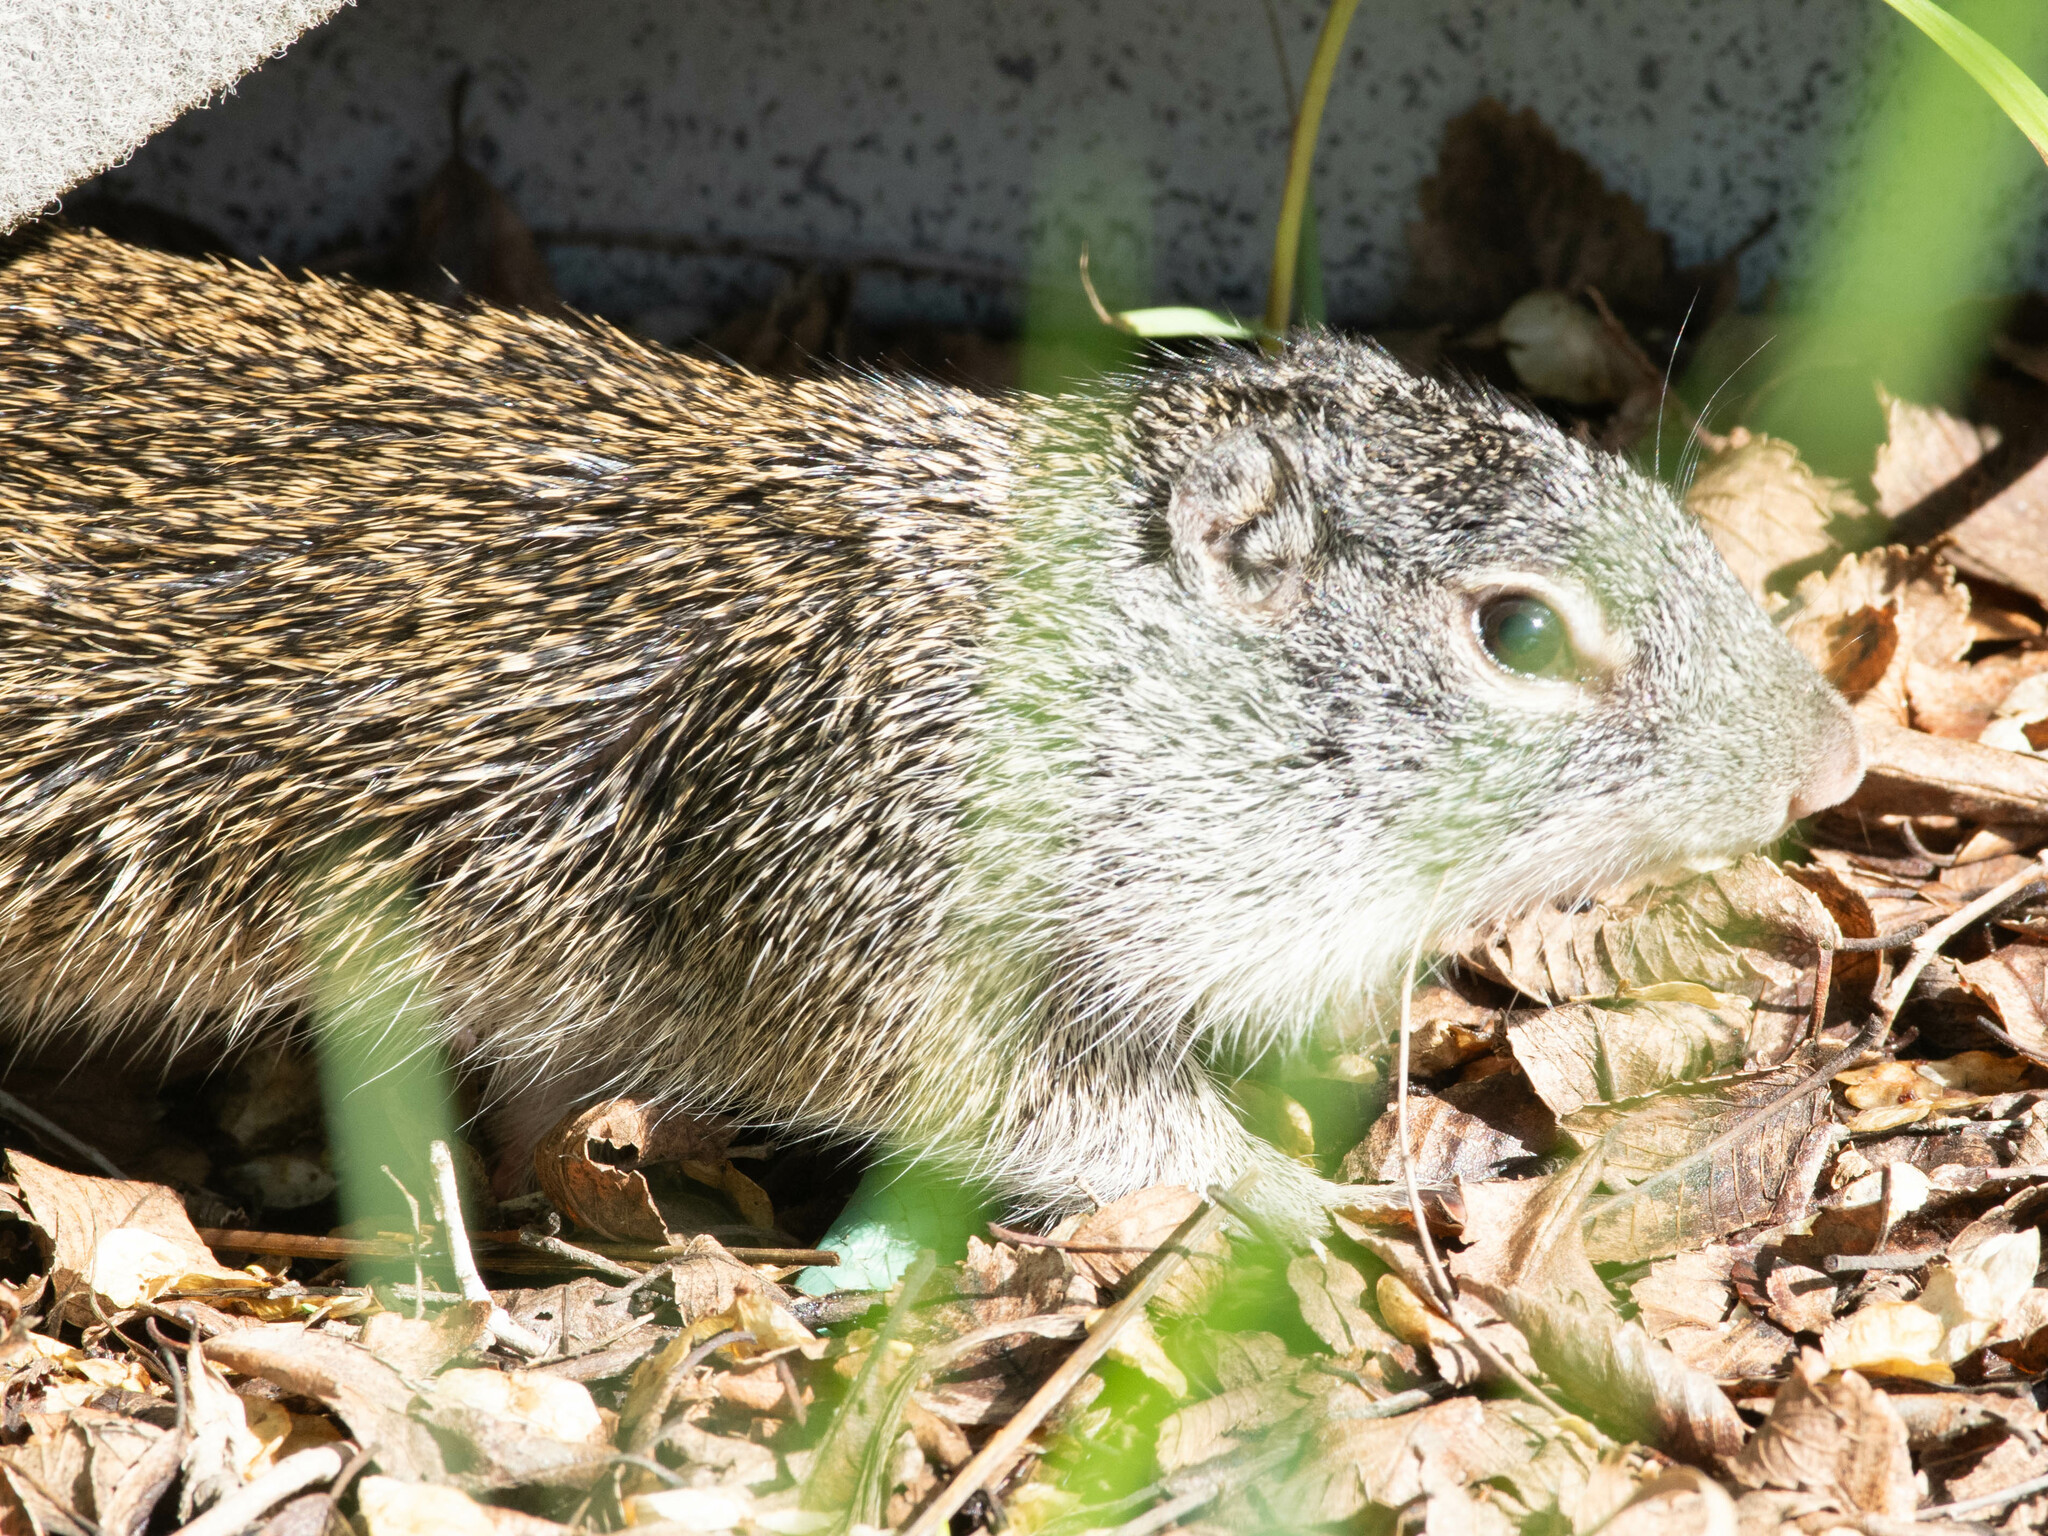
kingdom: Animalia
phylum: Chordata
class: Mammalia
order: Rodentia
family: Sciuridae
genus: Poliocitellus
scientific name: Poliocitellus franklinii
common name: Franklin's ground squirrel
